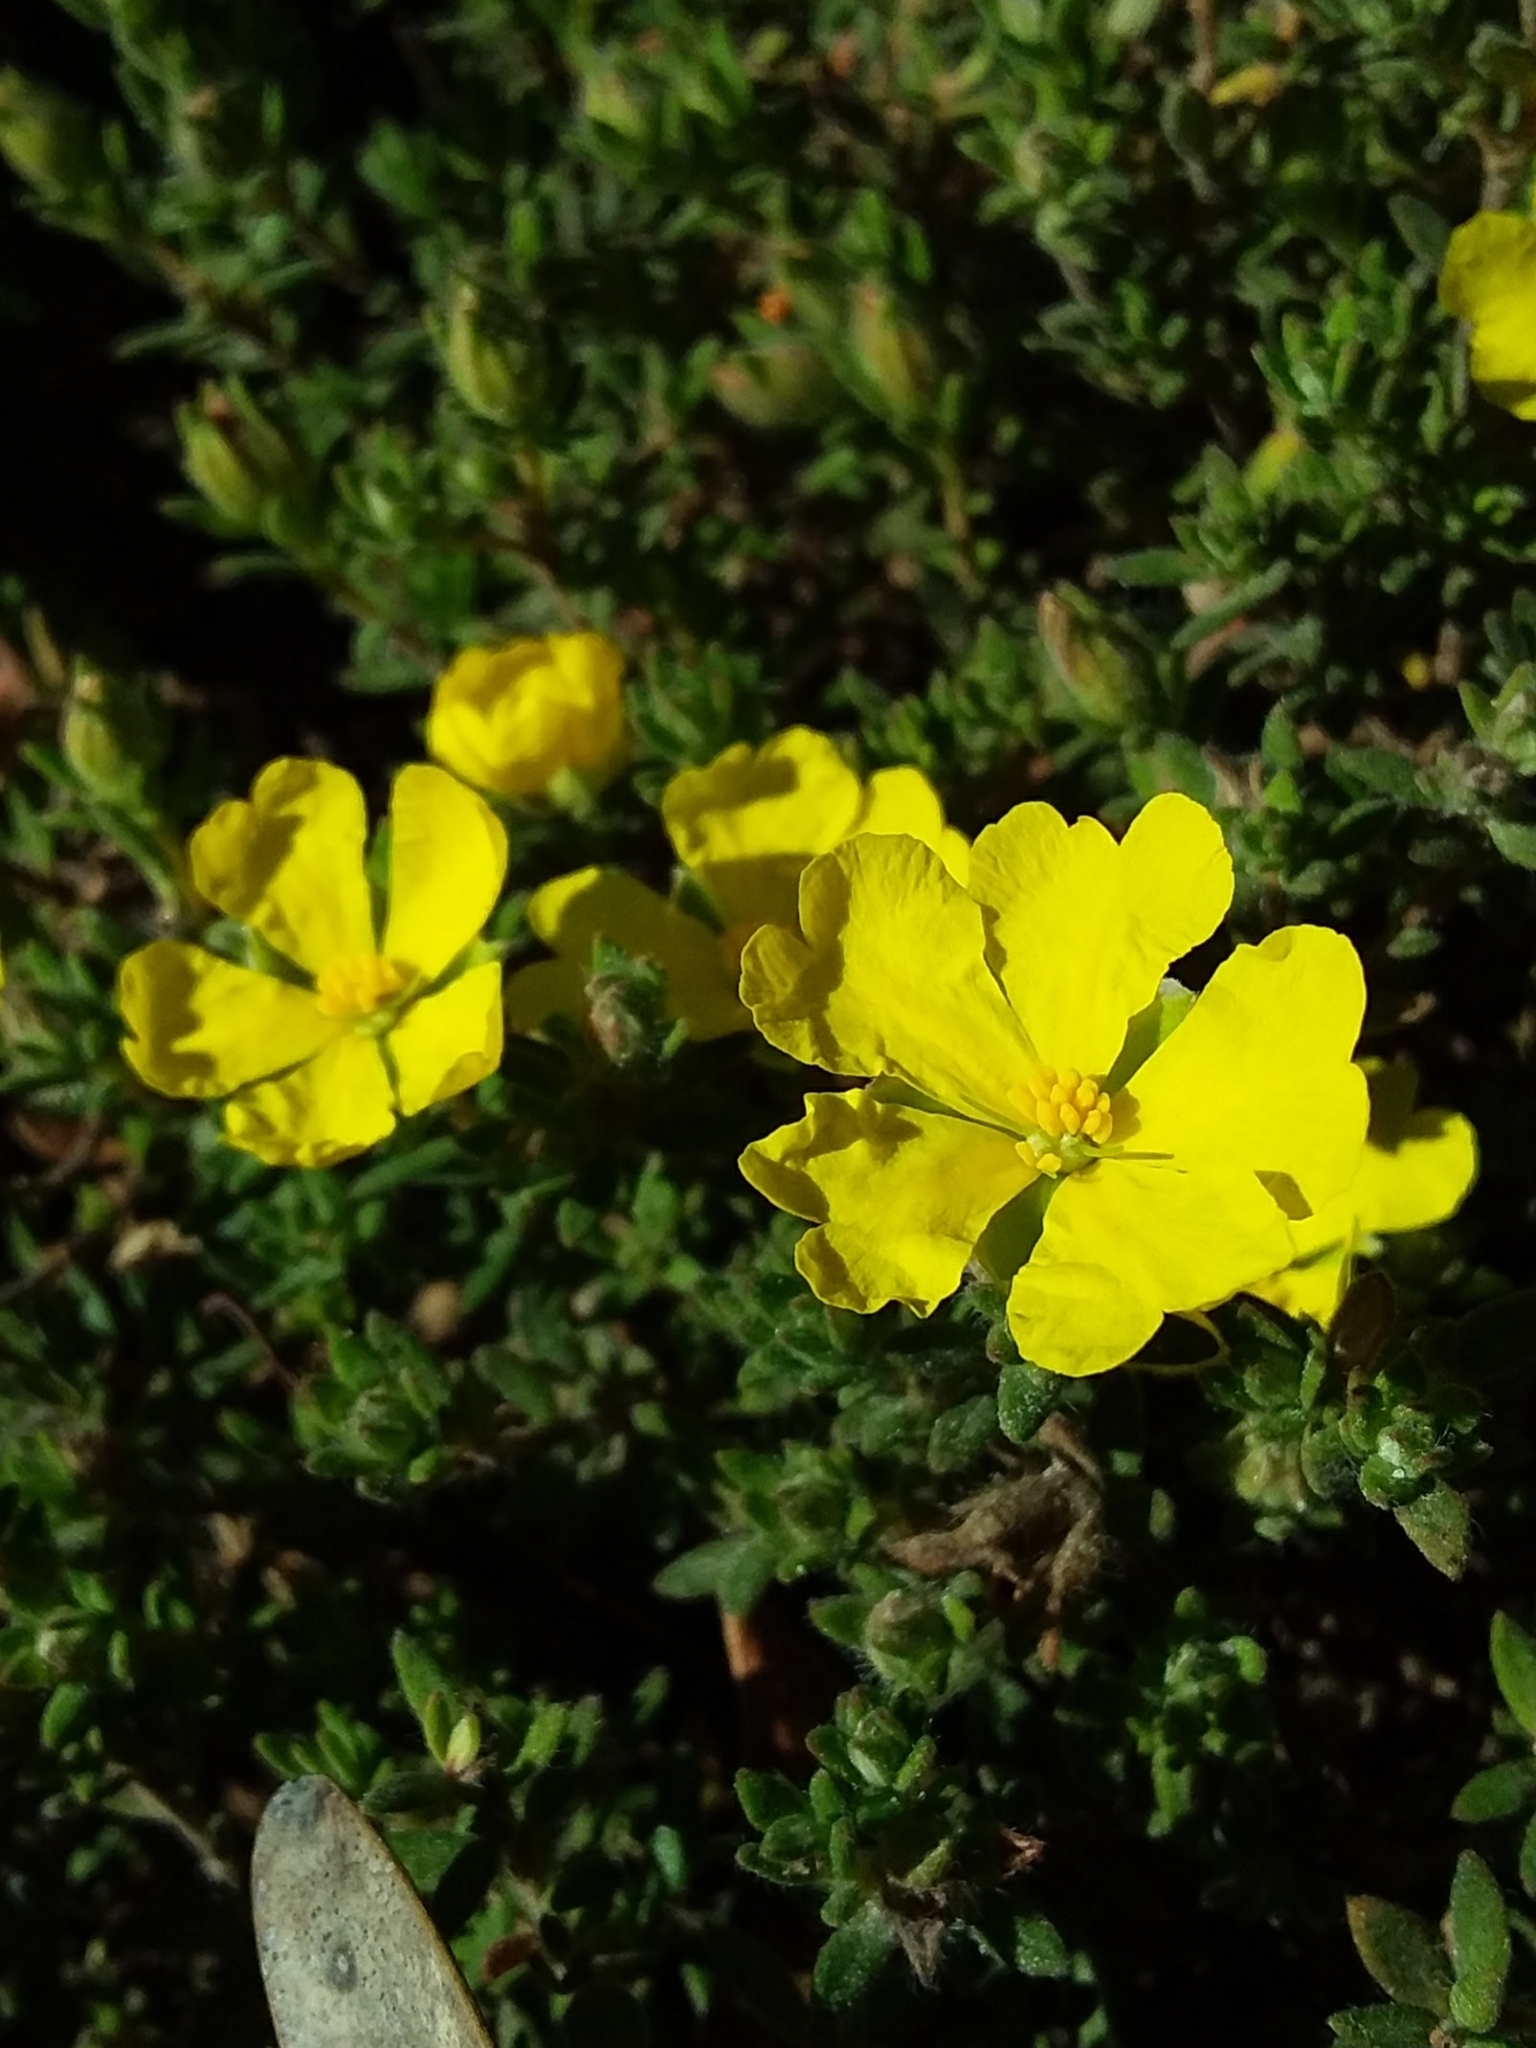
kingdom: Plantae
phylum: Tracheophyta
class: Magnoliopsida
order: Dilleniales
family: Dilleniaceae
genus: Hibbertia
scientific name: Hibbertia crinita
